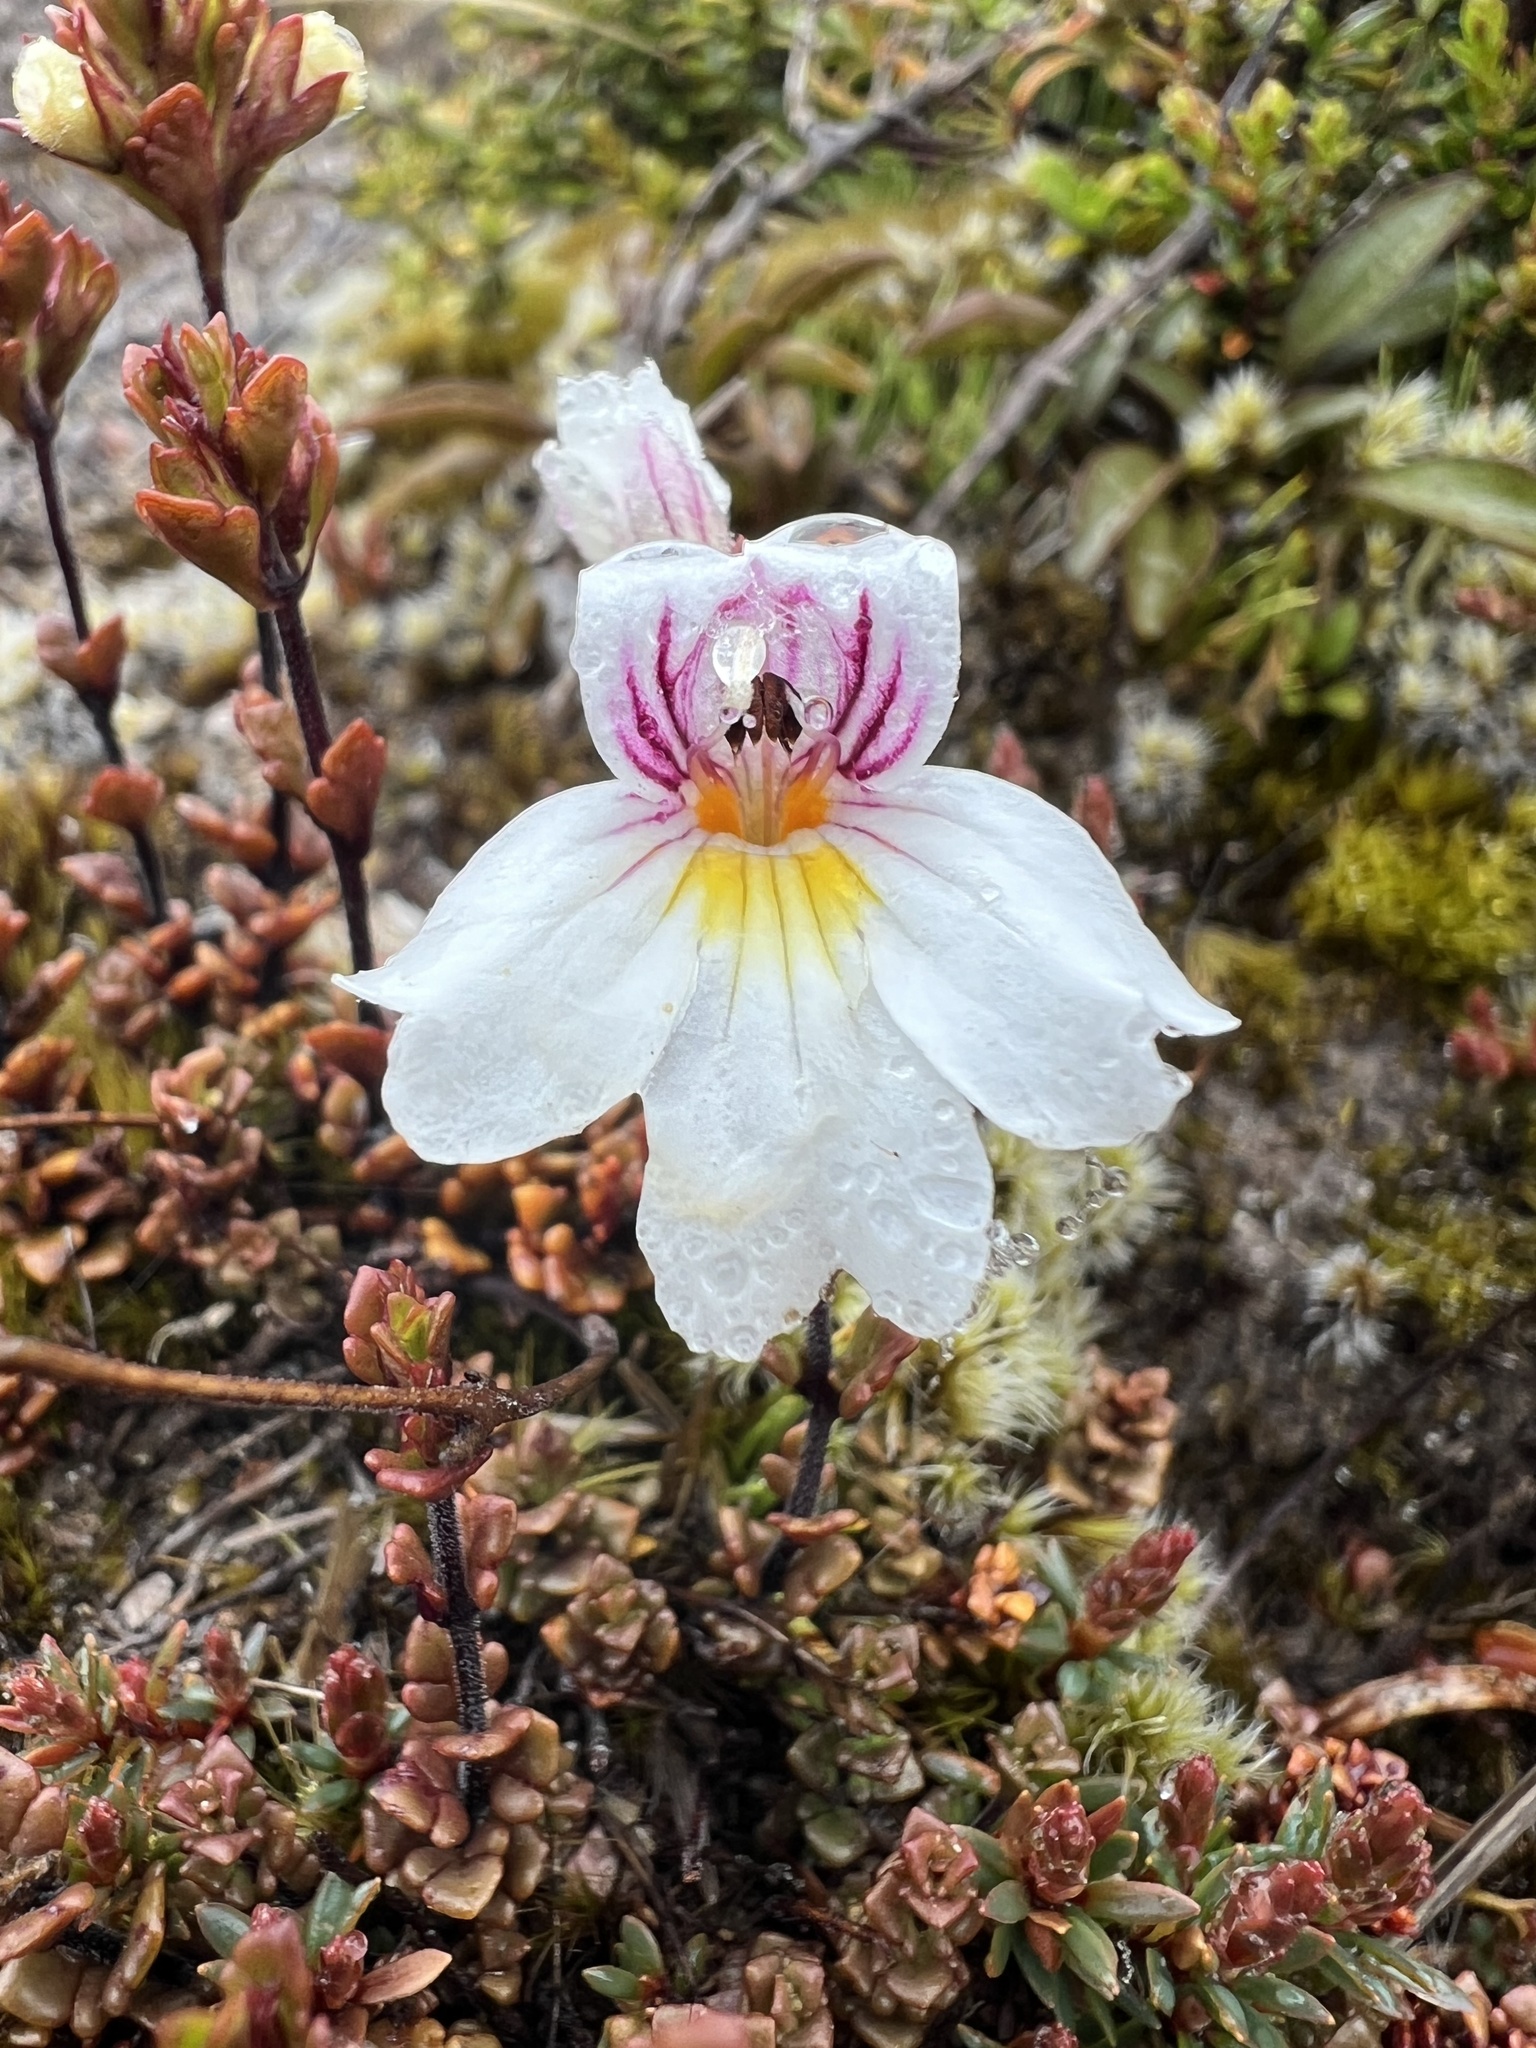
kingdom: Plantae
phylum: Tracheophyta
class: Magnoliopsida
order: Lamiales
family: Orobanchaceae
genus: Euphrasia
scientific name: Euphrasia cuneata
